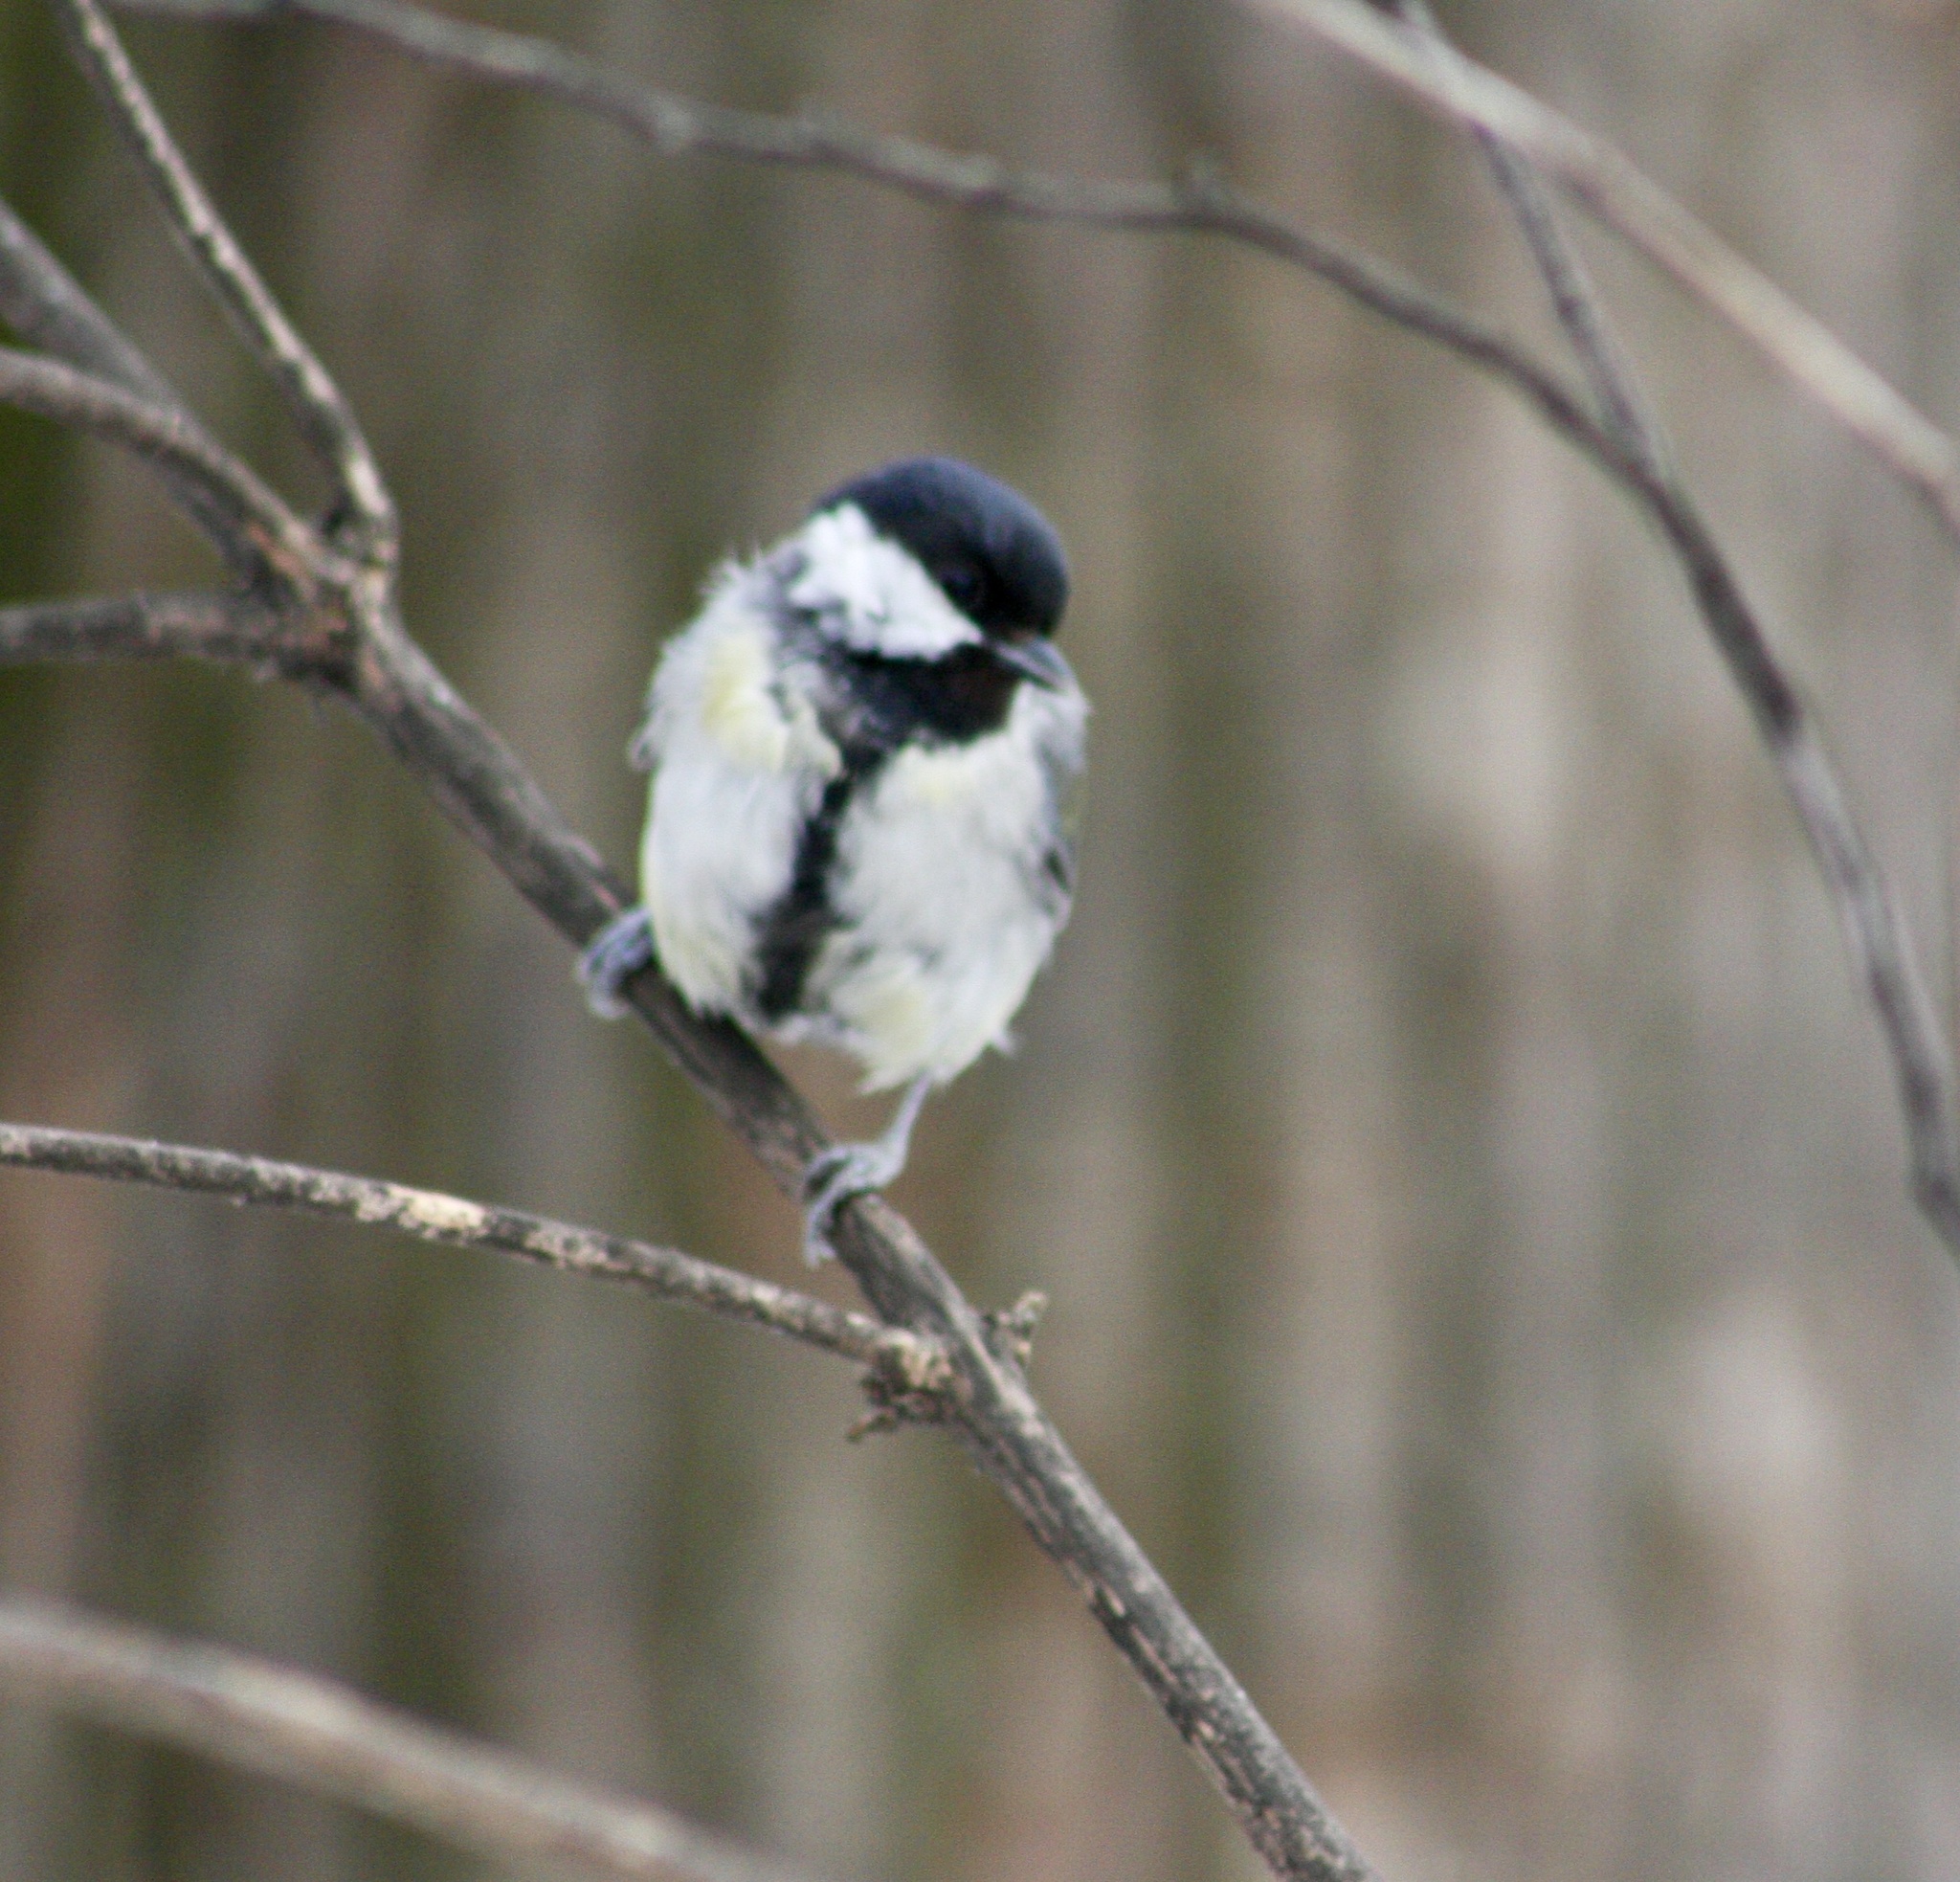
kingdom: Animalia
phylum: Chordata
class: Aves
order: Passeriformes
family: Paridae
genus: Parus
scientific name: Parus major
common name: Great tit
